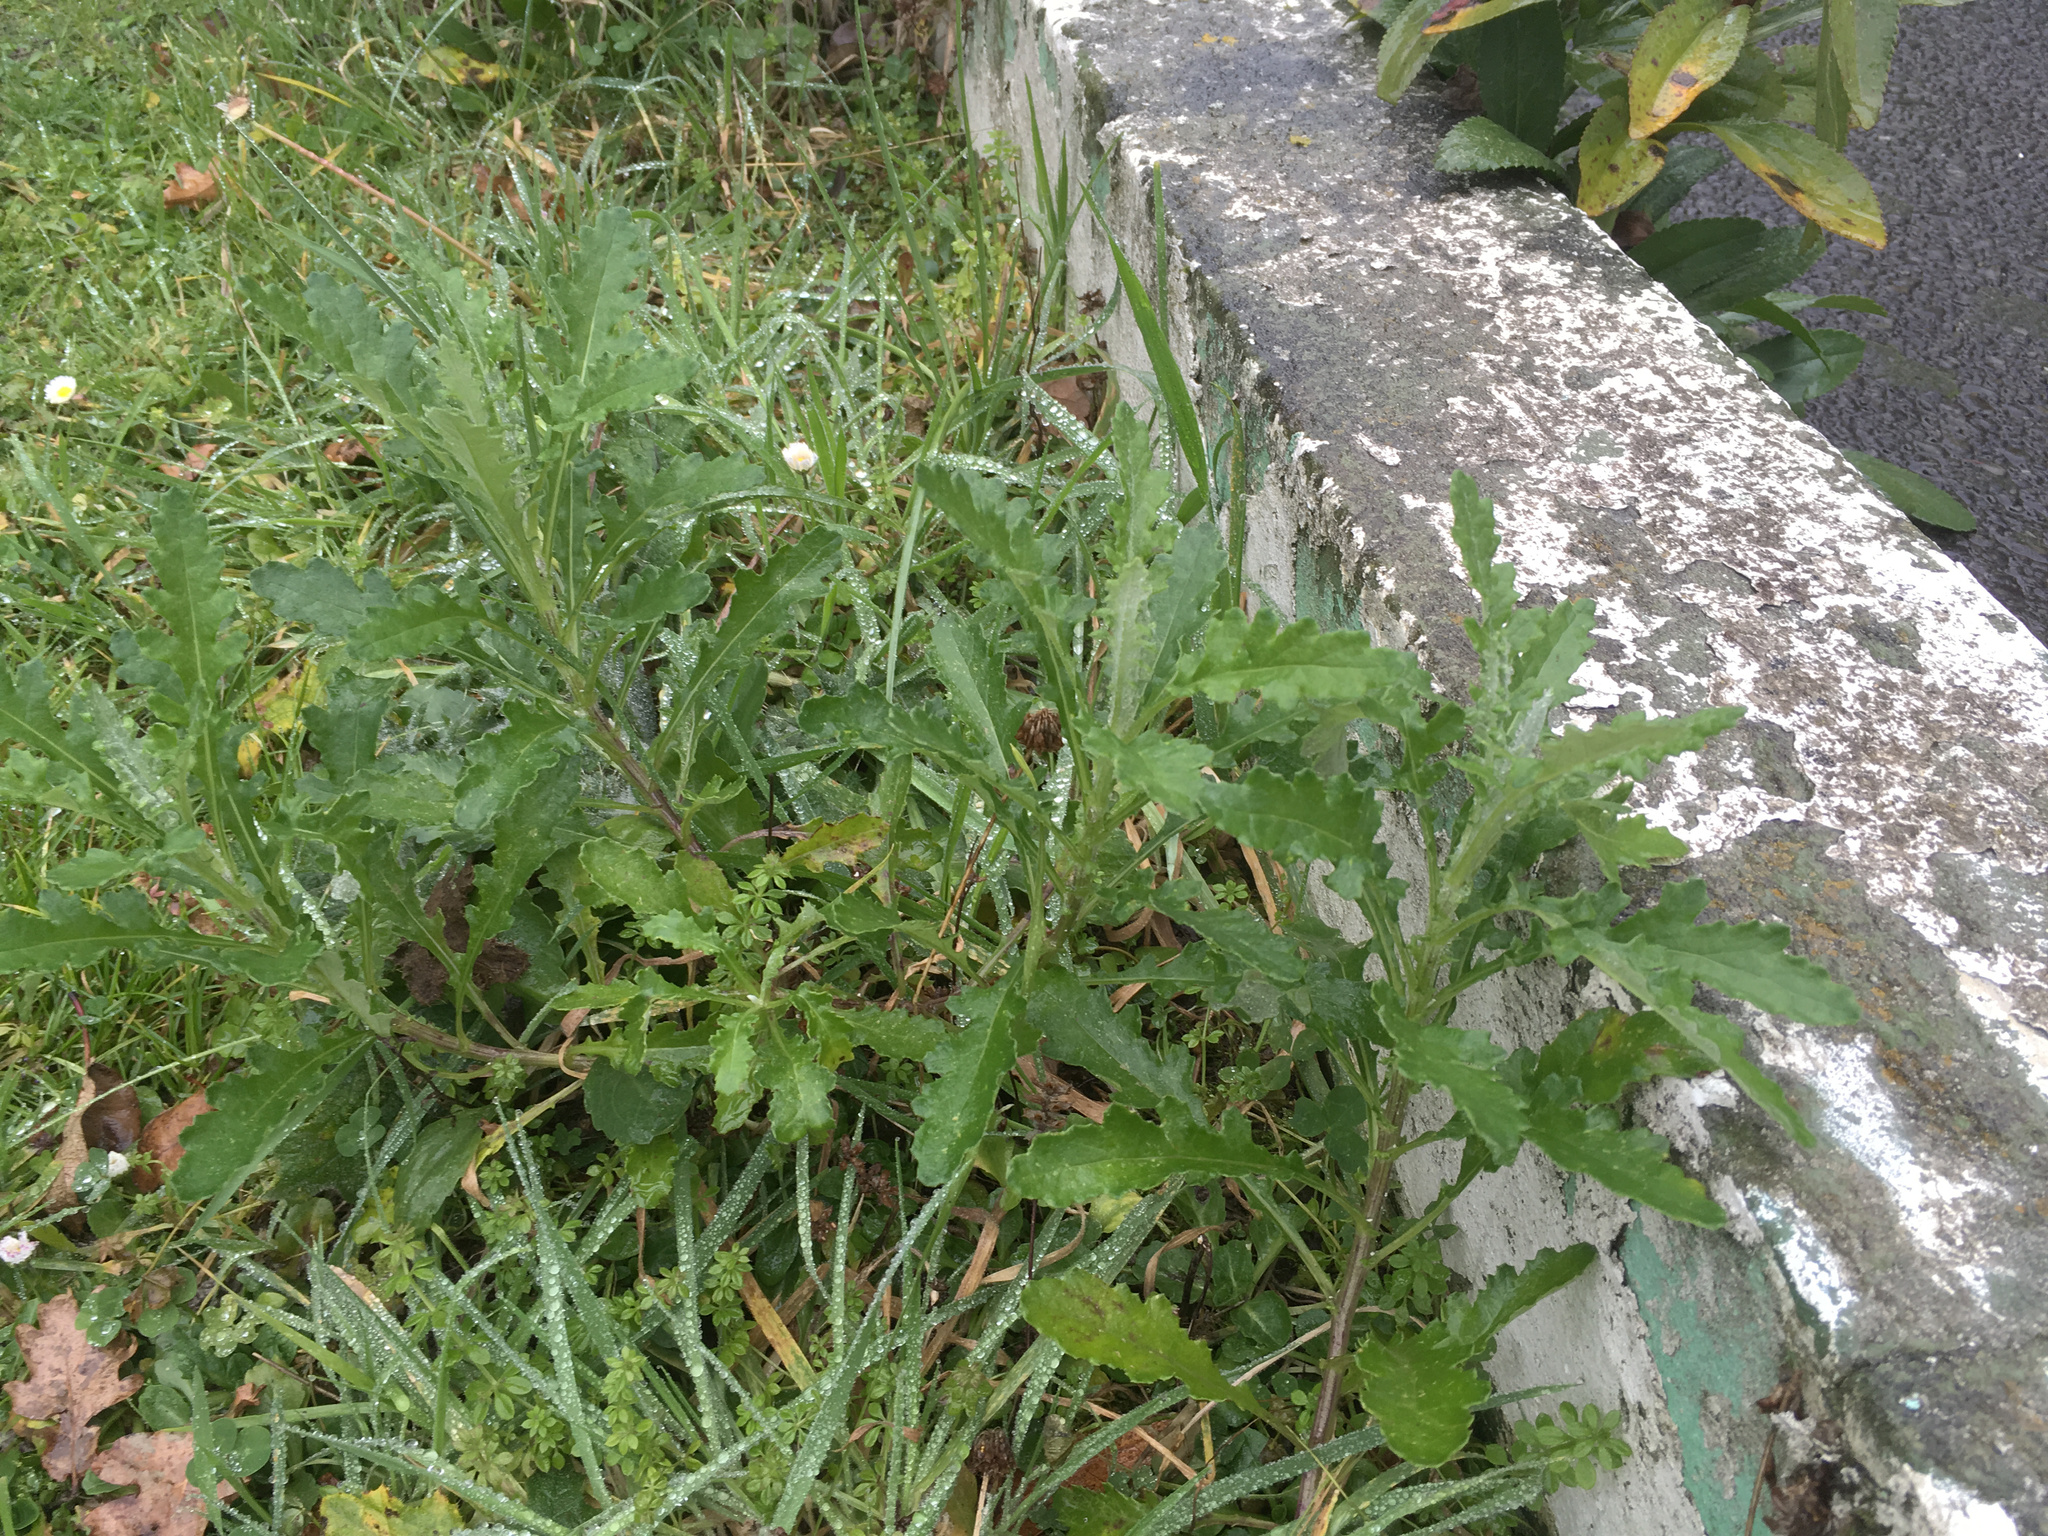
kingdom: Plantae
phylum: Tracheophyta
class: Magnoliopsida
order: Asterales
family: Asteraceae
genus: Senecio
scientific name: Senecio glomeratus
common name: Cutleaf burnweed
